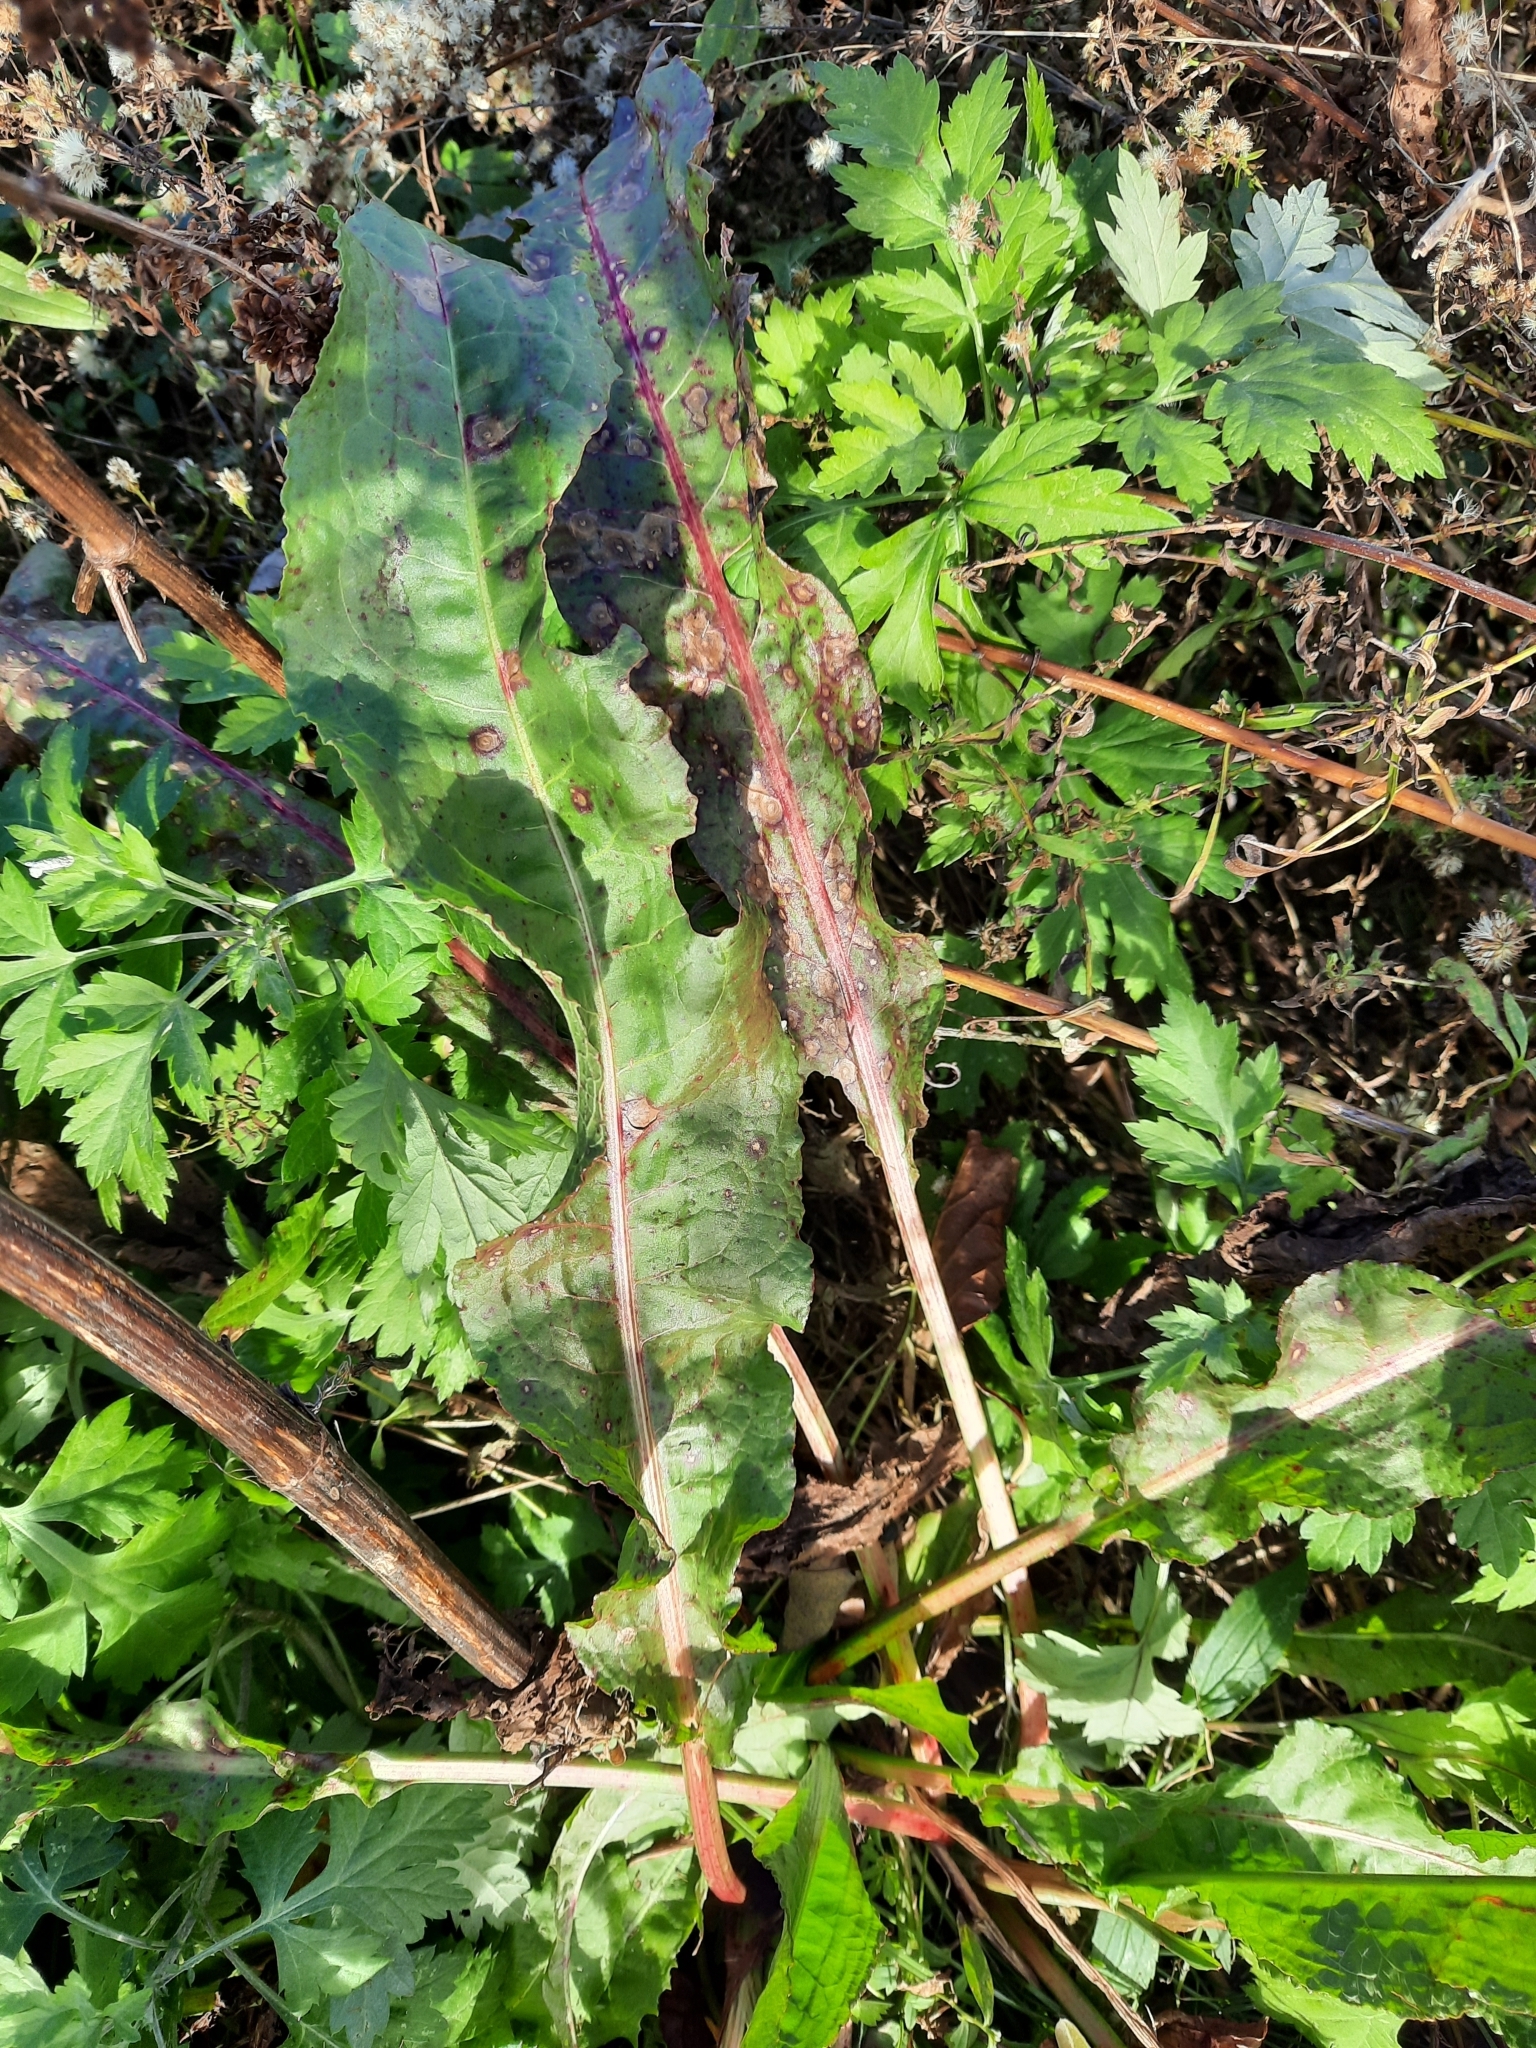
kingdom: Plantae
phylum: Tracheophyta
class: Magnoliopsida
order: Caryophyllales
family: Polygonaceae
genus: Rumex
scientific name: Rumex crispus
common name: Curled dock
